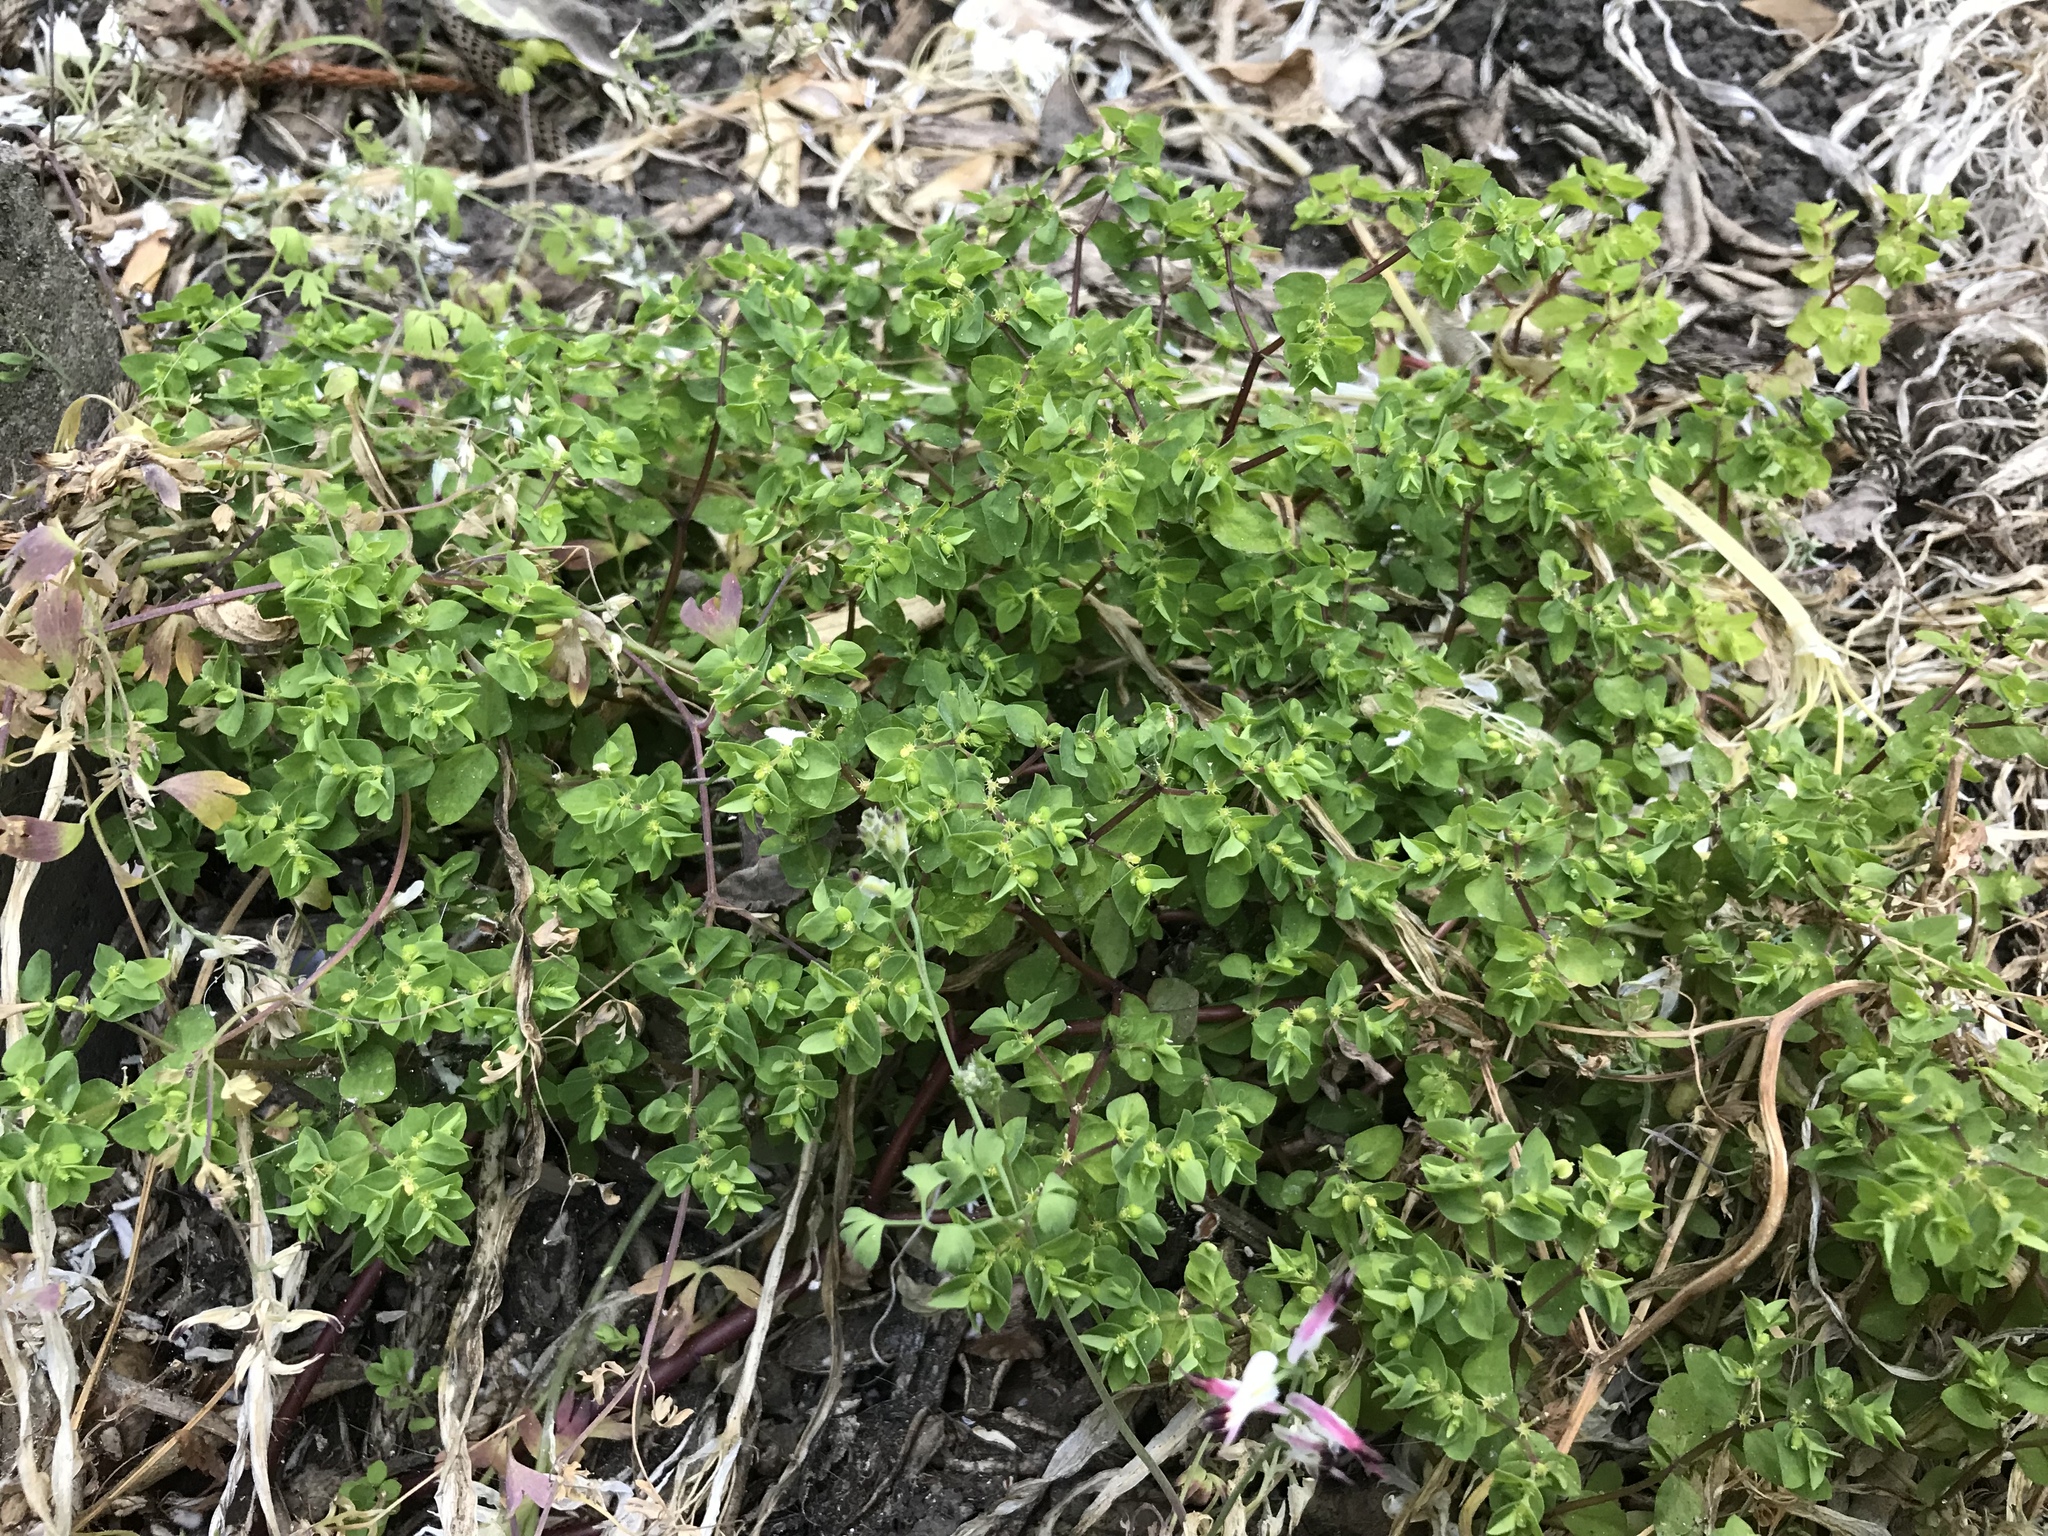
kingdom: Plantae
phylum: Tracheophyta
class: Magnoliopsida
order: Malpighiales
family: Euphorbiaceae
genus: Euphorbia
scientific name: Euphorbia peplus
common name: Petty spurge
